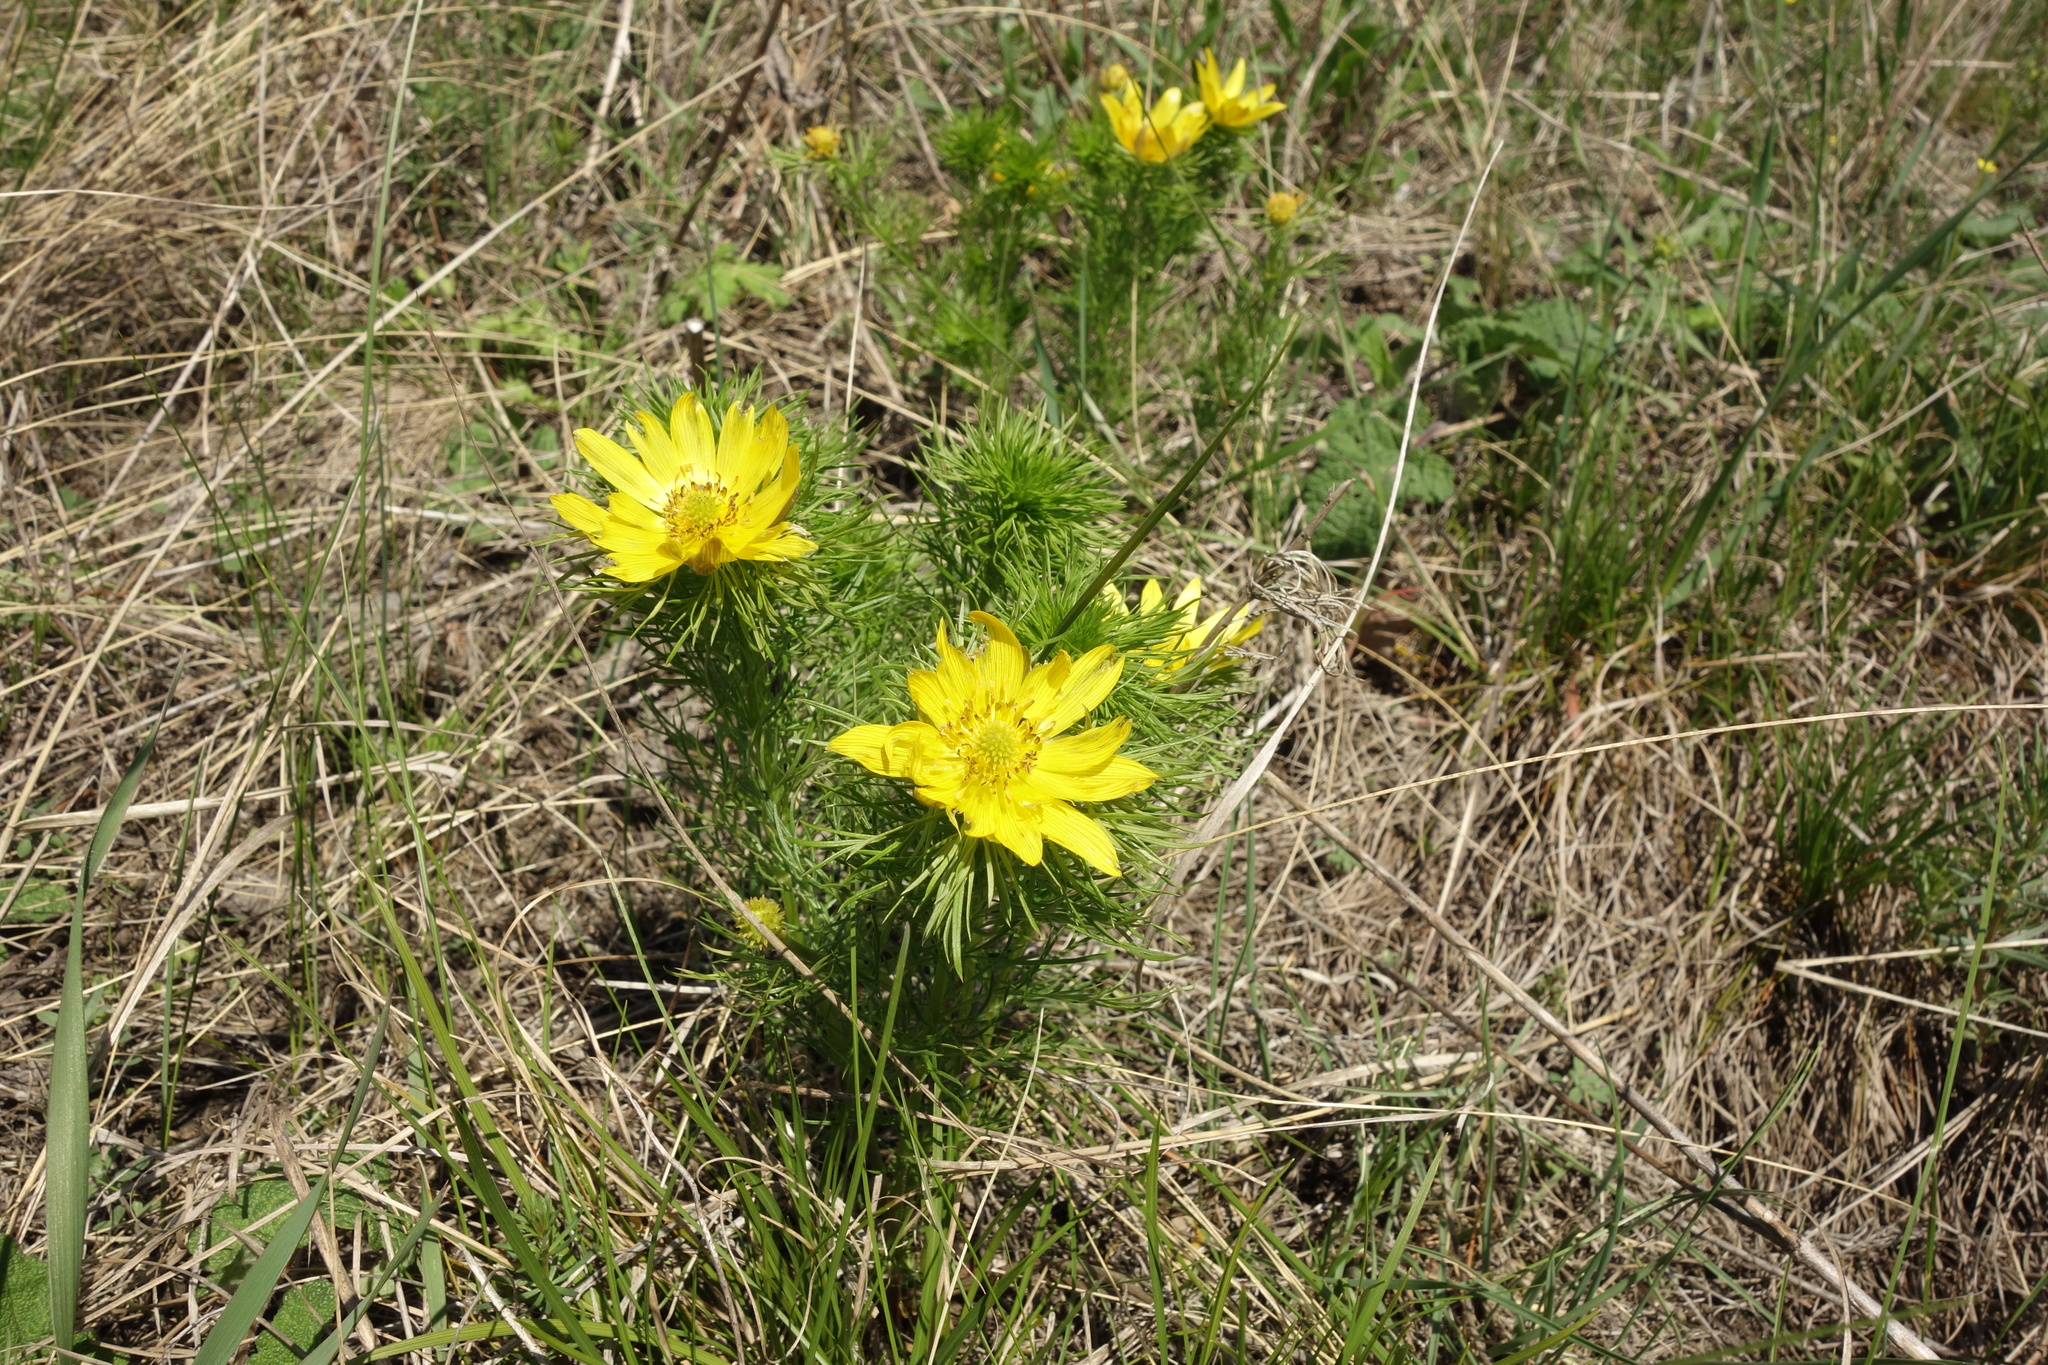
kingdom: Plantae
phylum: Tracheophyta
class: Magnoliopsida
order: Ranunculales
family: Ranunculaceae
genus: Adonis
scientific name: Adonis vernalis
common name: Yellow pheasants-eye
